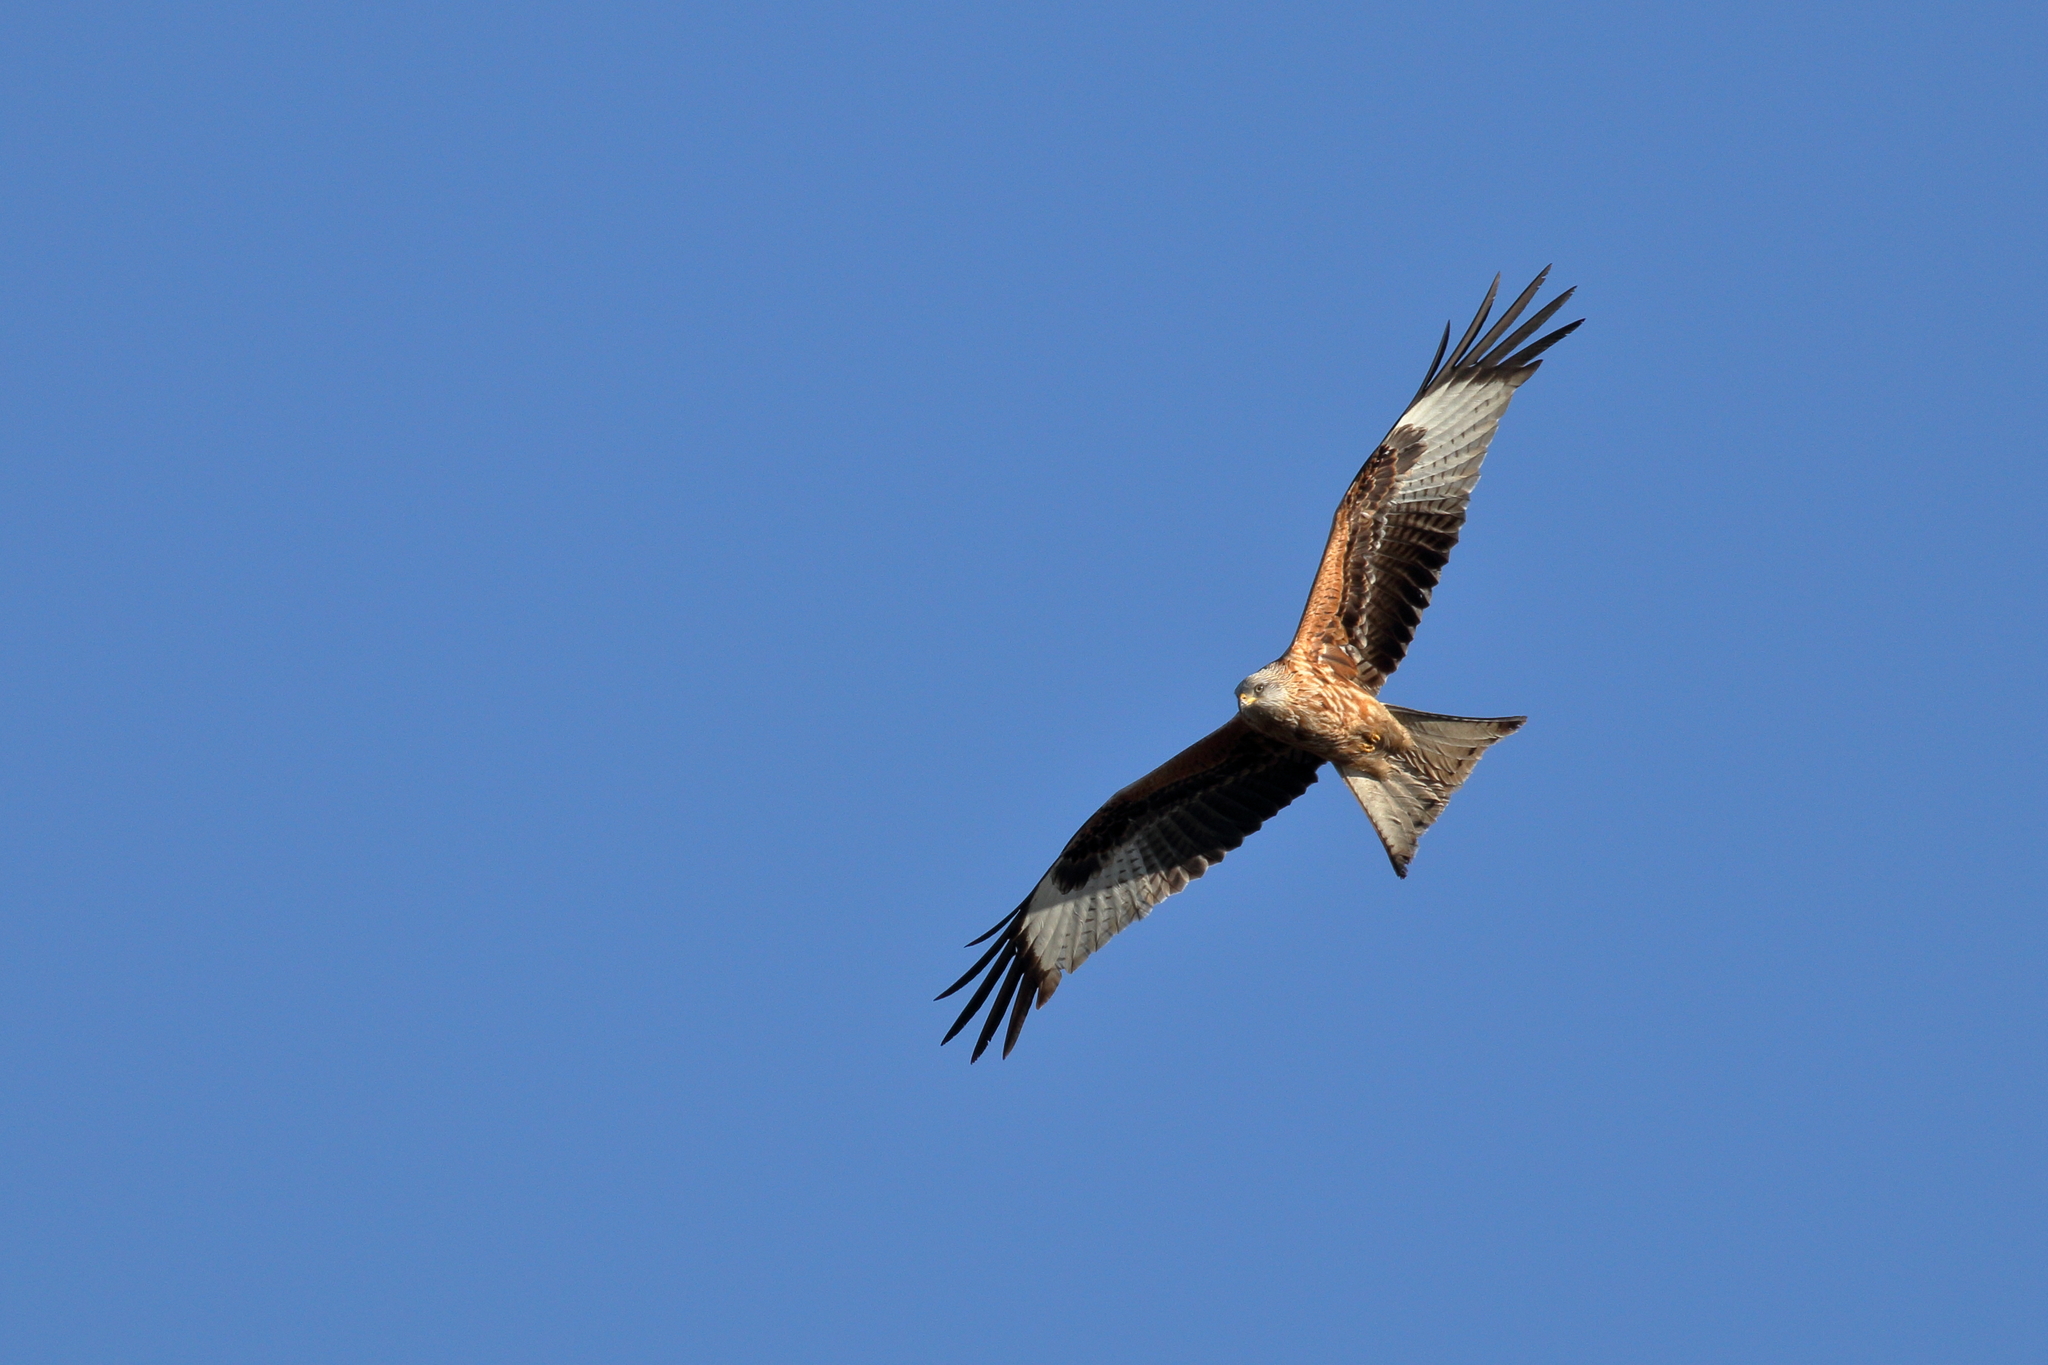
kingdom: Animalia
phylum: Chordata
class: Aves
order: Accipitriformes
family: Accipitridae
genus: Milvus
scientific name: Milvus milvus
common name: Red kite
